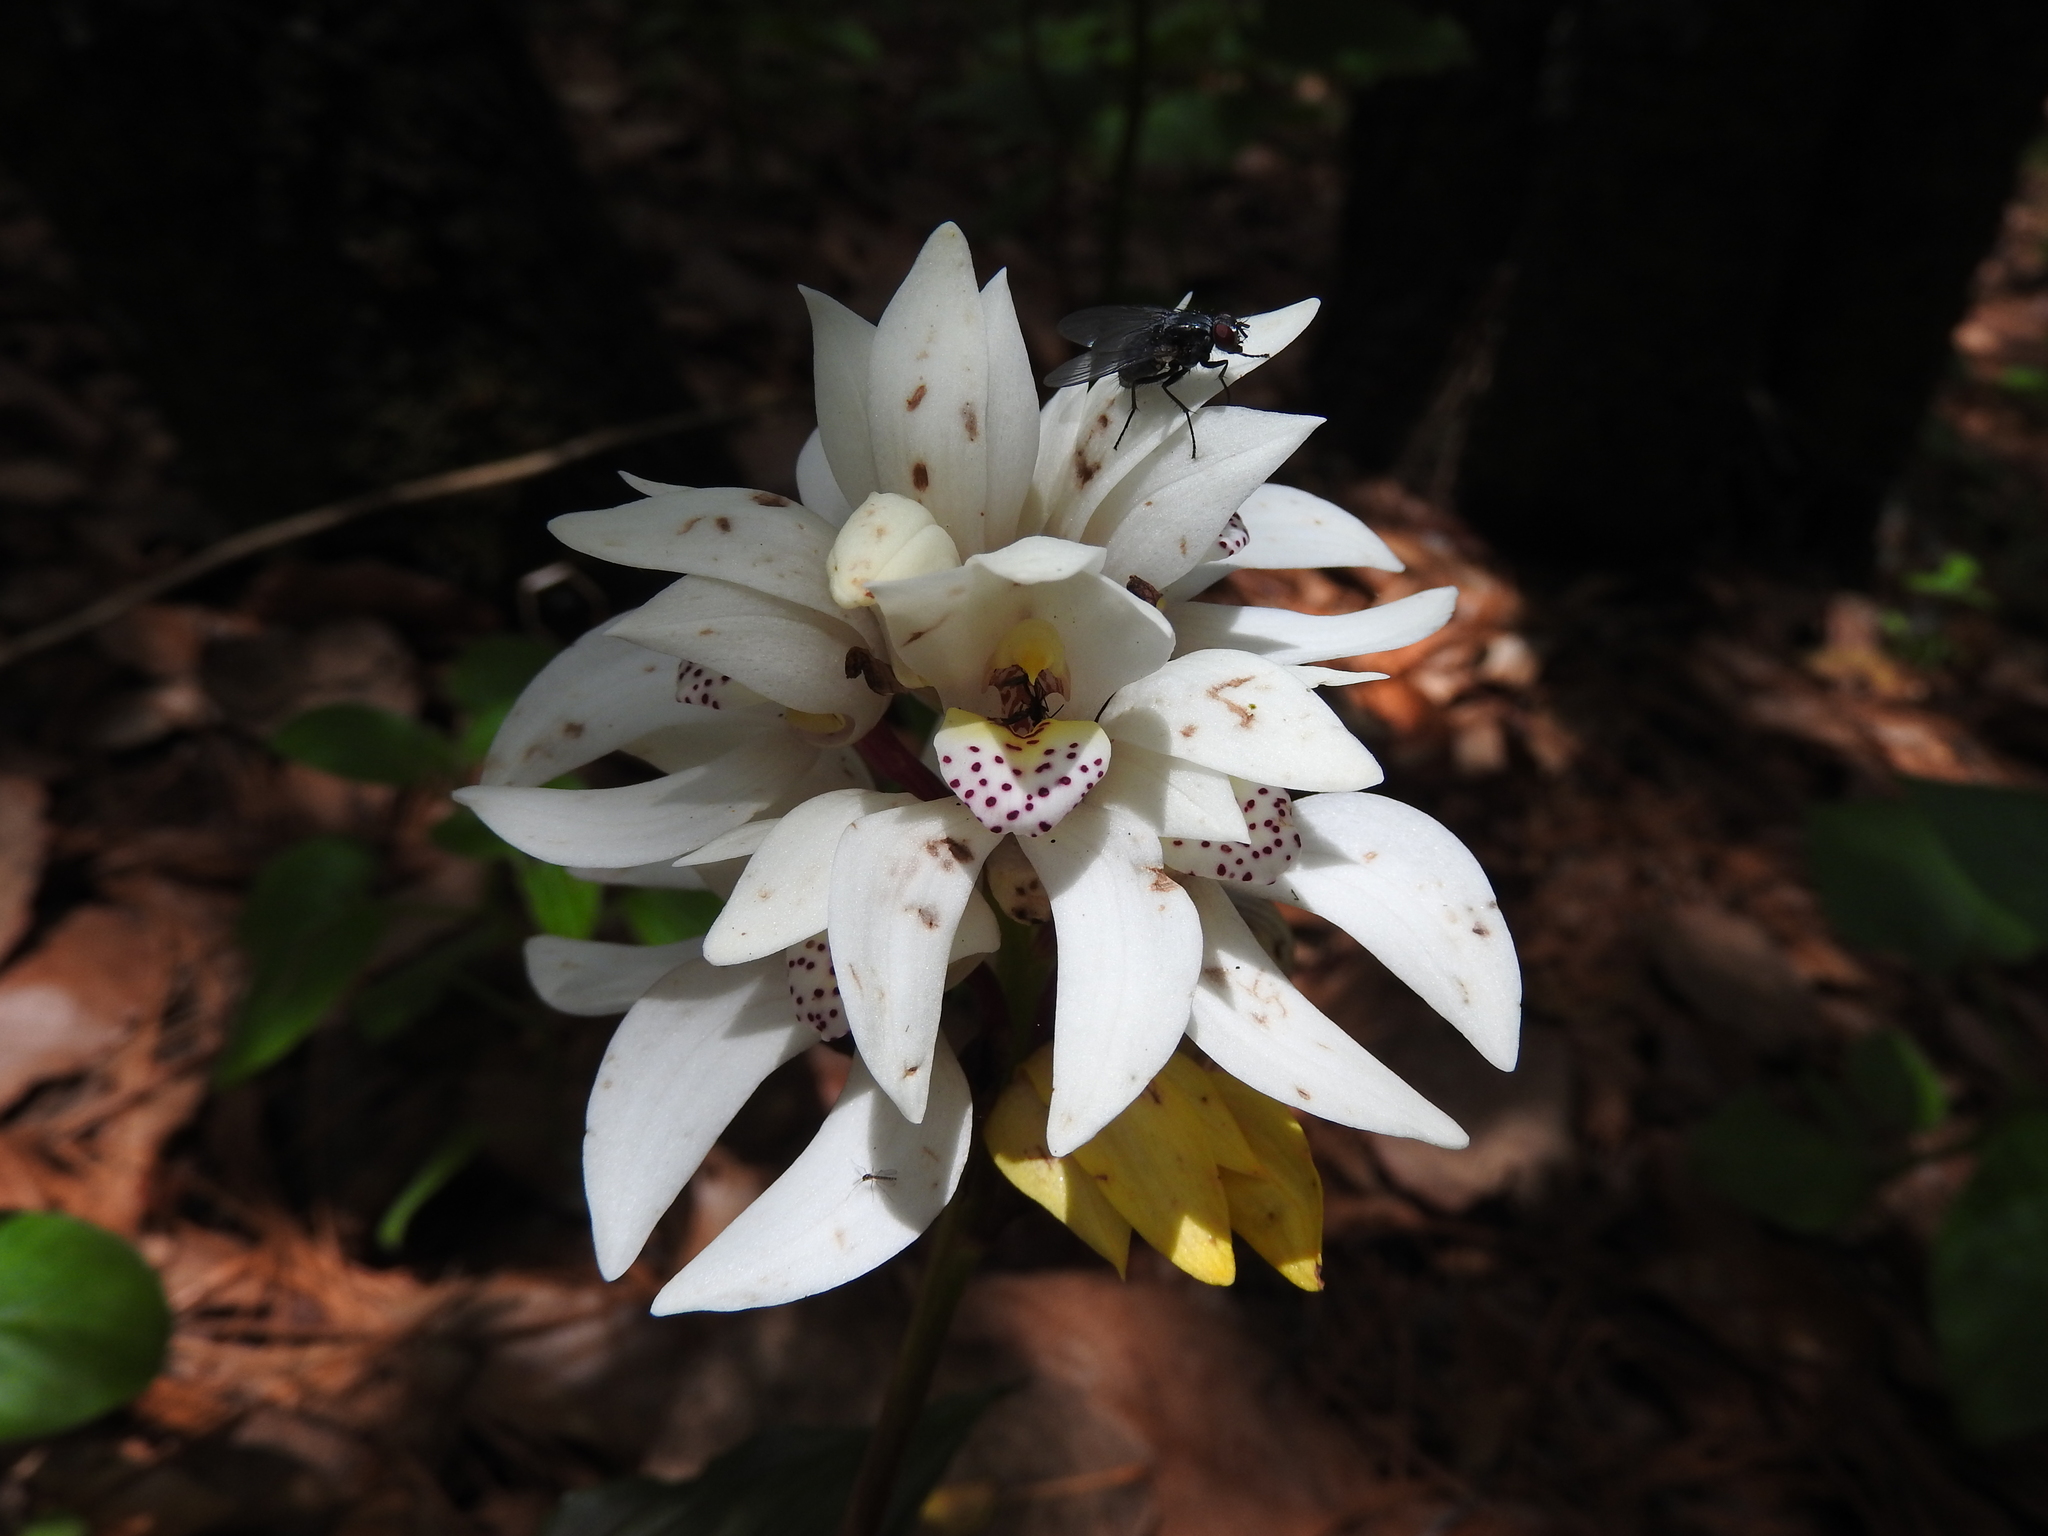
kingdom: Plantae
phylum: Tracheophyta
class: Liliopsida
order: Asparagales
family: Orchidaceae
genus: Govenia
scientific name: Govenia capitata
